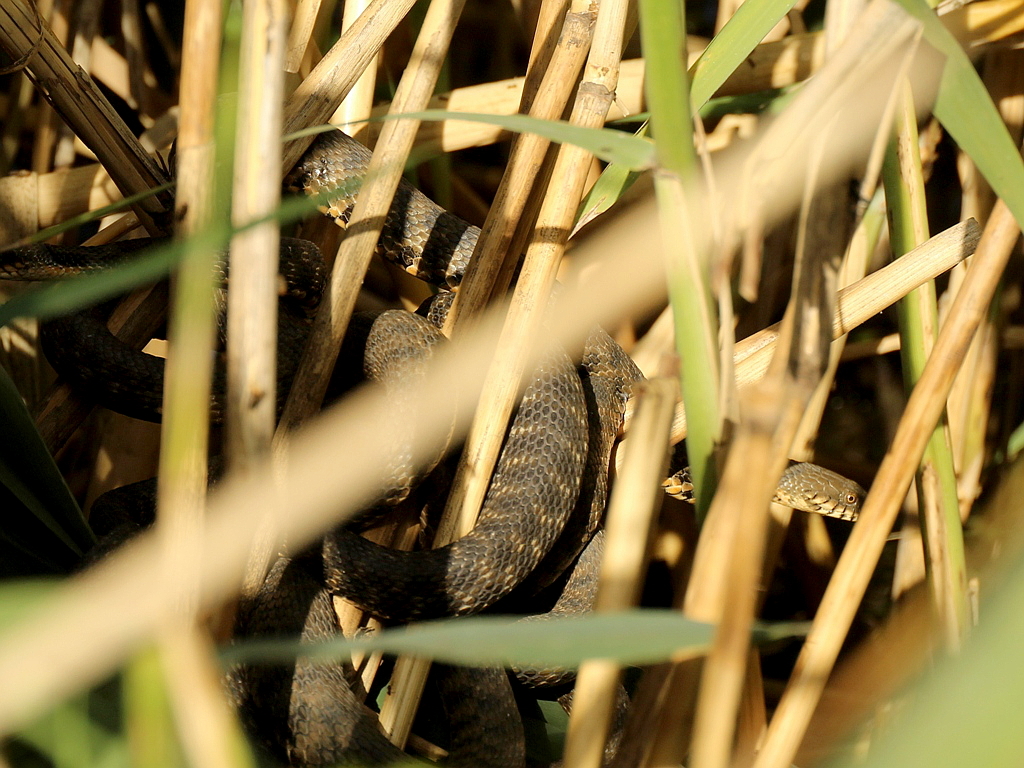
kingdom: Animalia
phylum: Chordata
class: Squamata
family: Colubridae
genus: Natrix
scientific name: Natrix tessellata
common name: Dice snake
